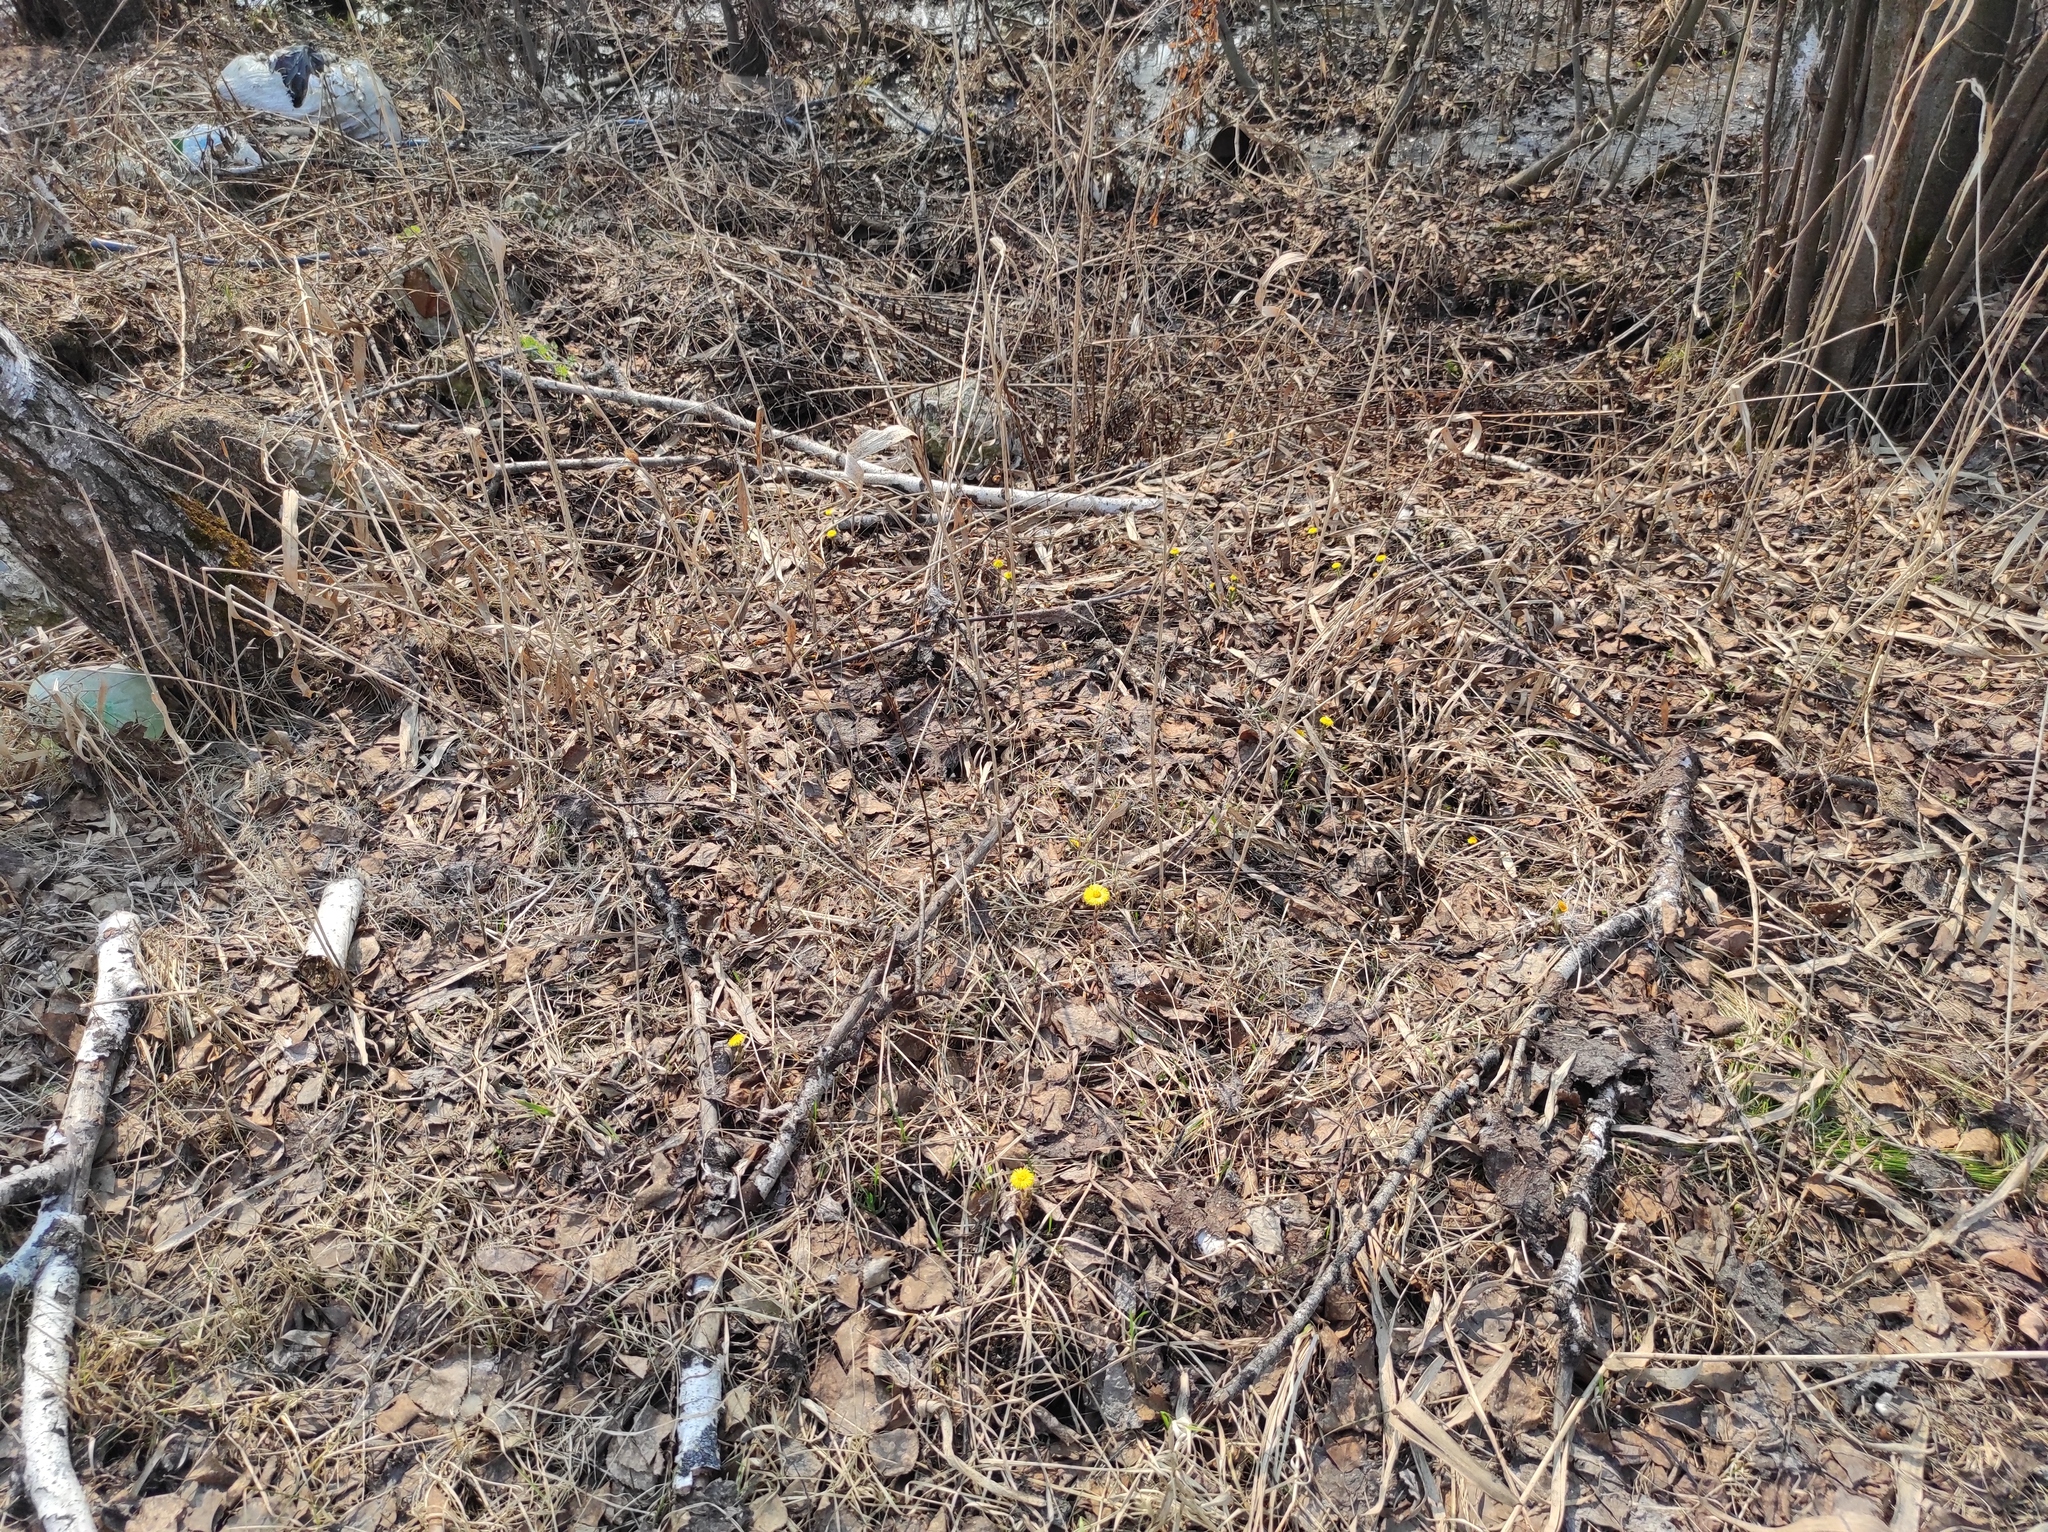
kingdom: Plantae
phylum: Tracheophyta
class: Magnoliopsida
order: Asterales
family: Asteraceae
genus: Tussilago
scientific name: Tussilago farfara
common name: Coltsfoot
